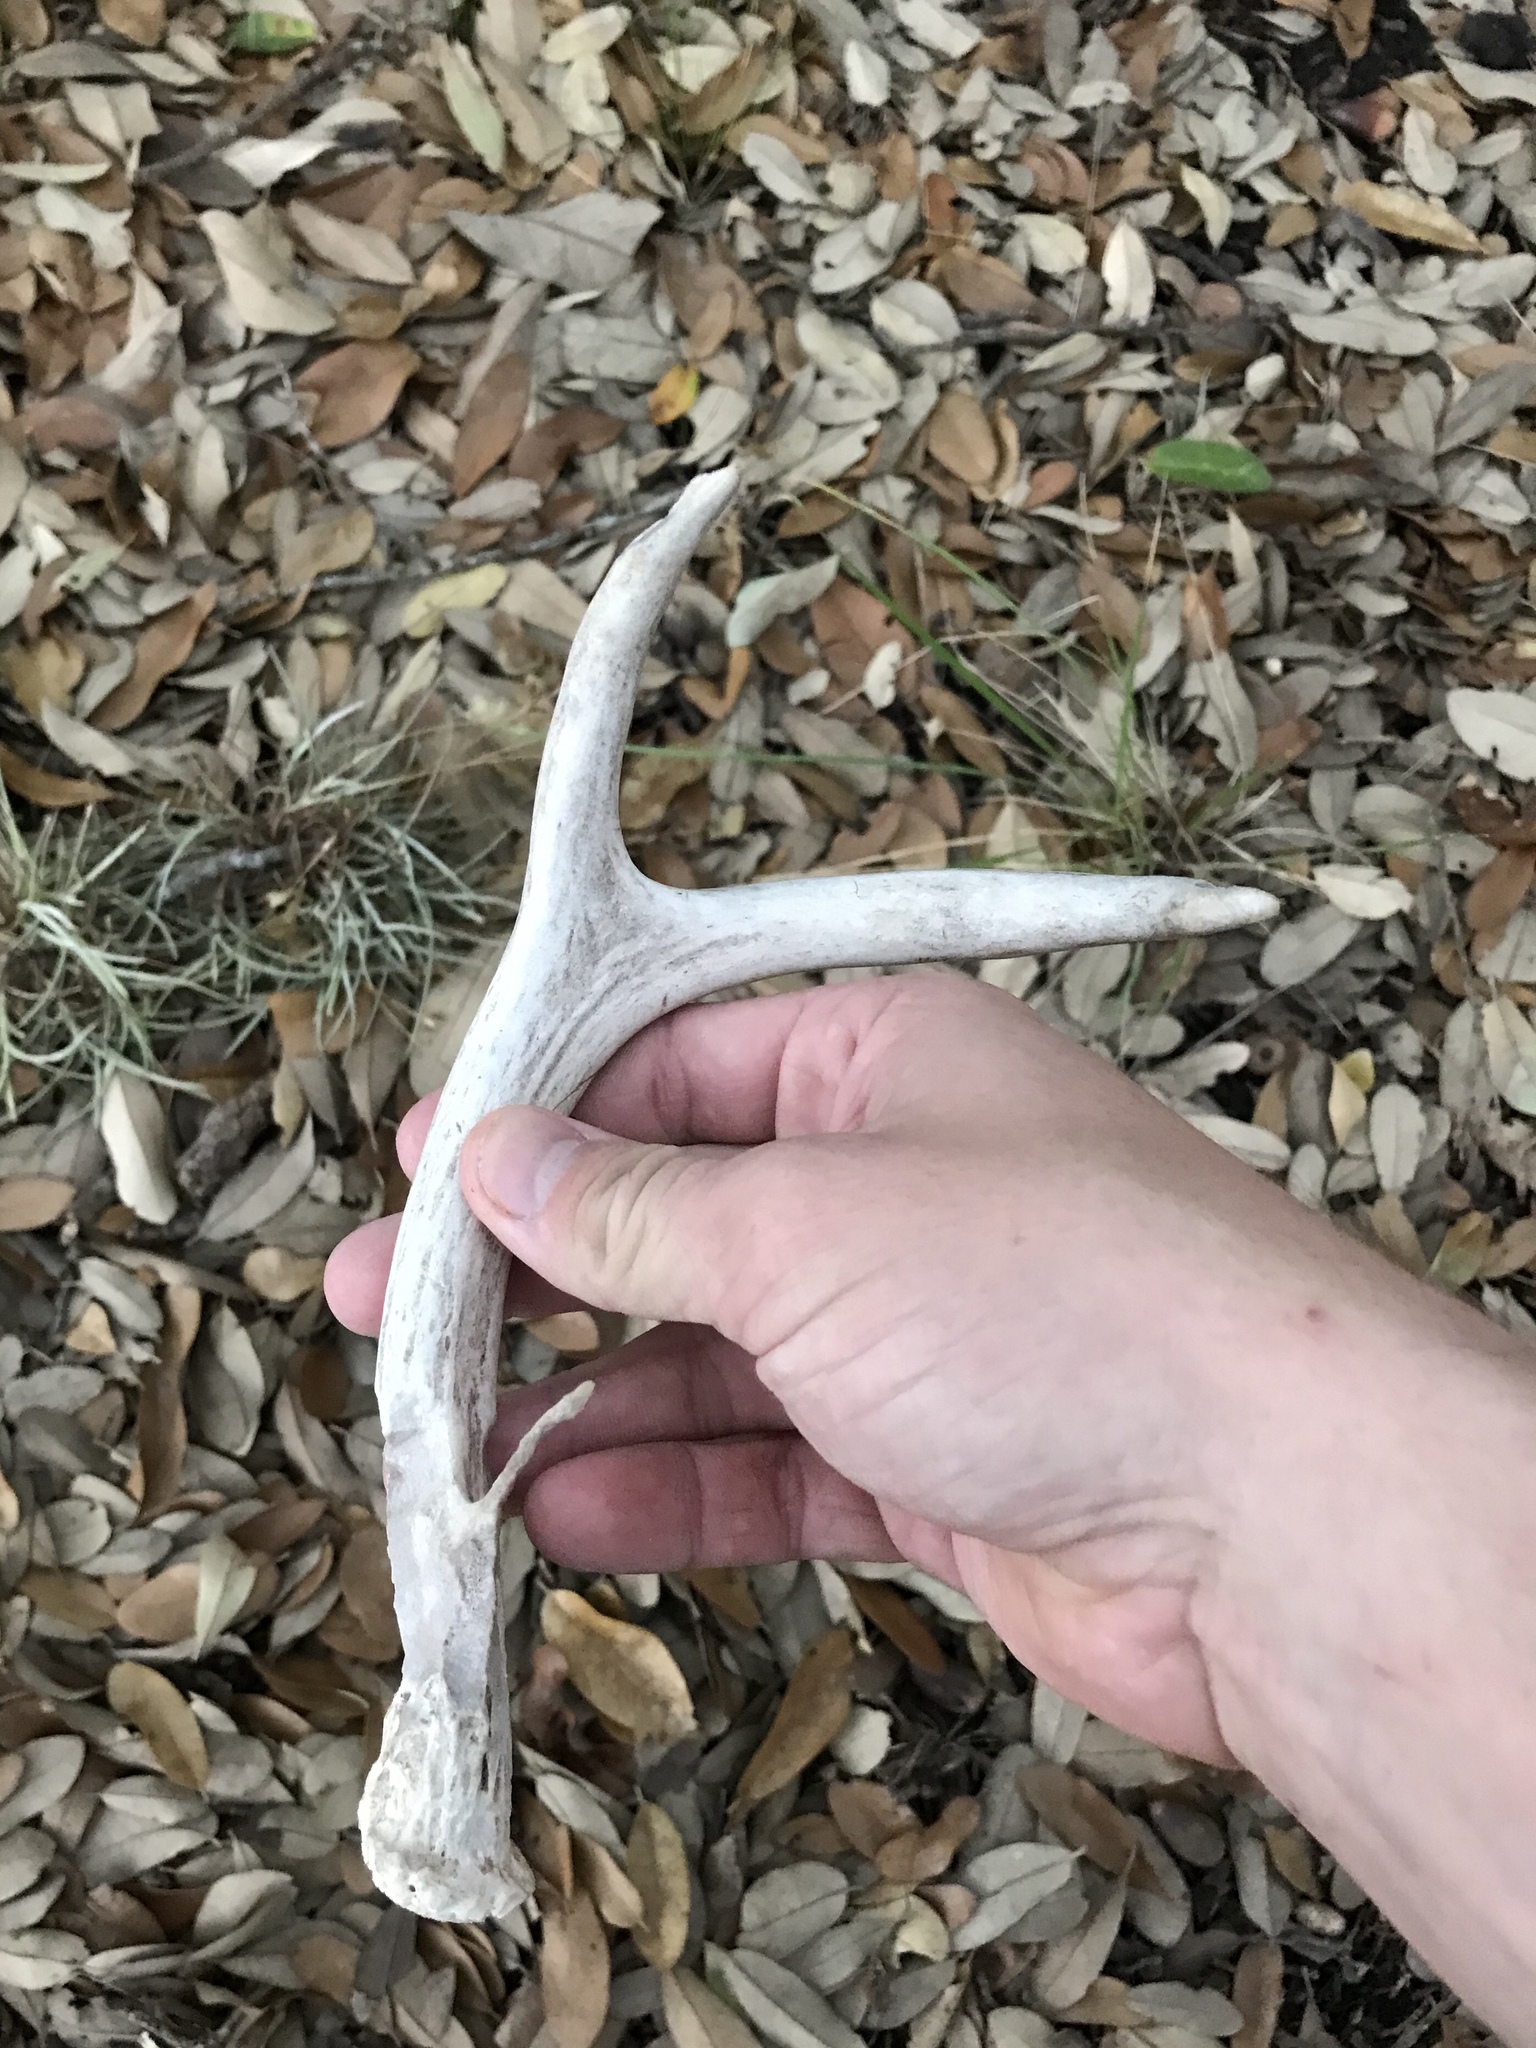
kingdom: Animalia
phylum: Chordata
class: Mammalia
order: Artiodactyla
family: Cervidae
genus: Odocoileus
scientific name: Odocoileus virginianus
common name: White-tailed deer
